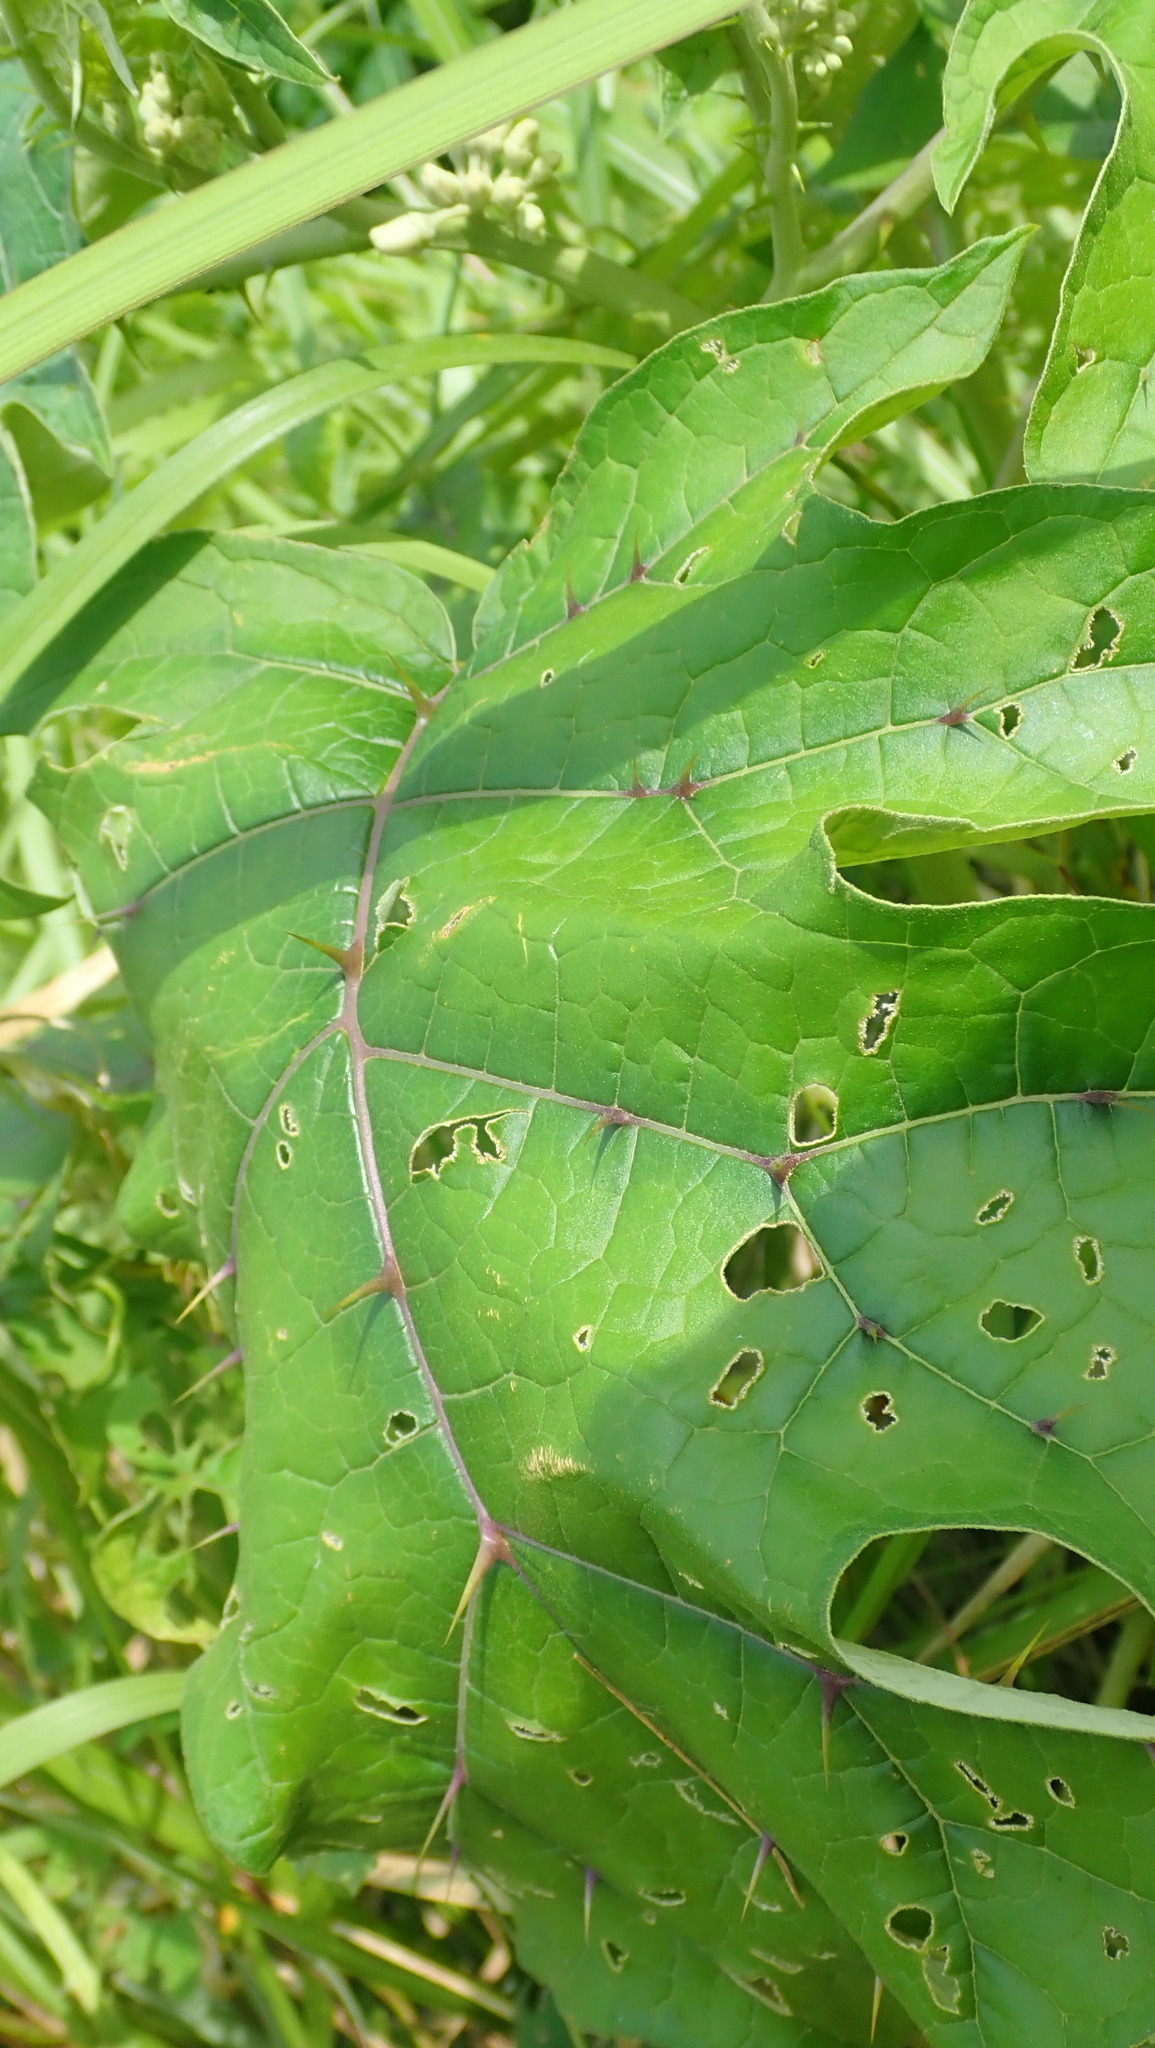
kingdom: Plantae
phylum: Tracheophyta
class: Magnoliopsida
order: Solanales
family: Solanaceae
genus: Solanum
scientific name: Solanum
